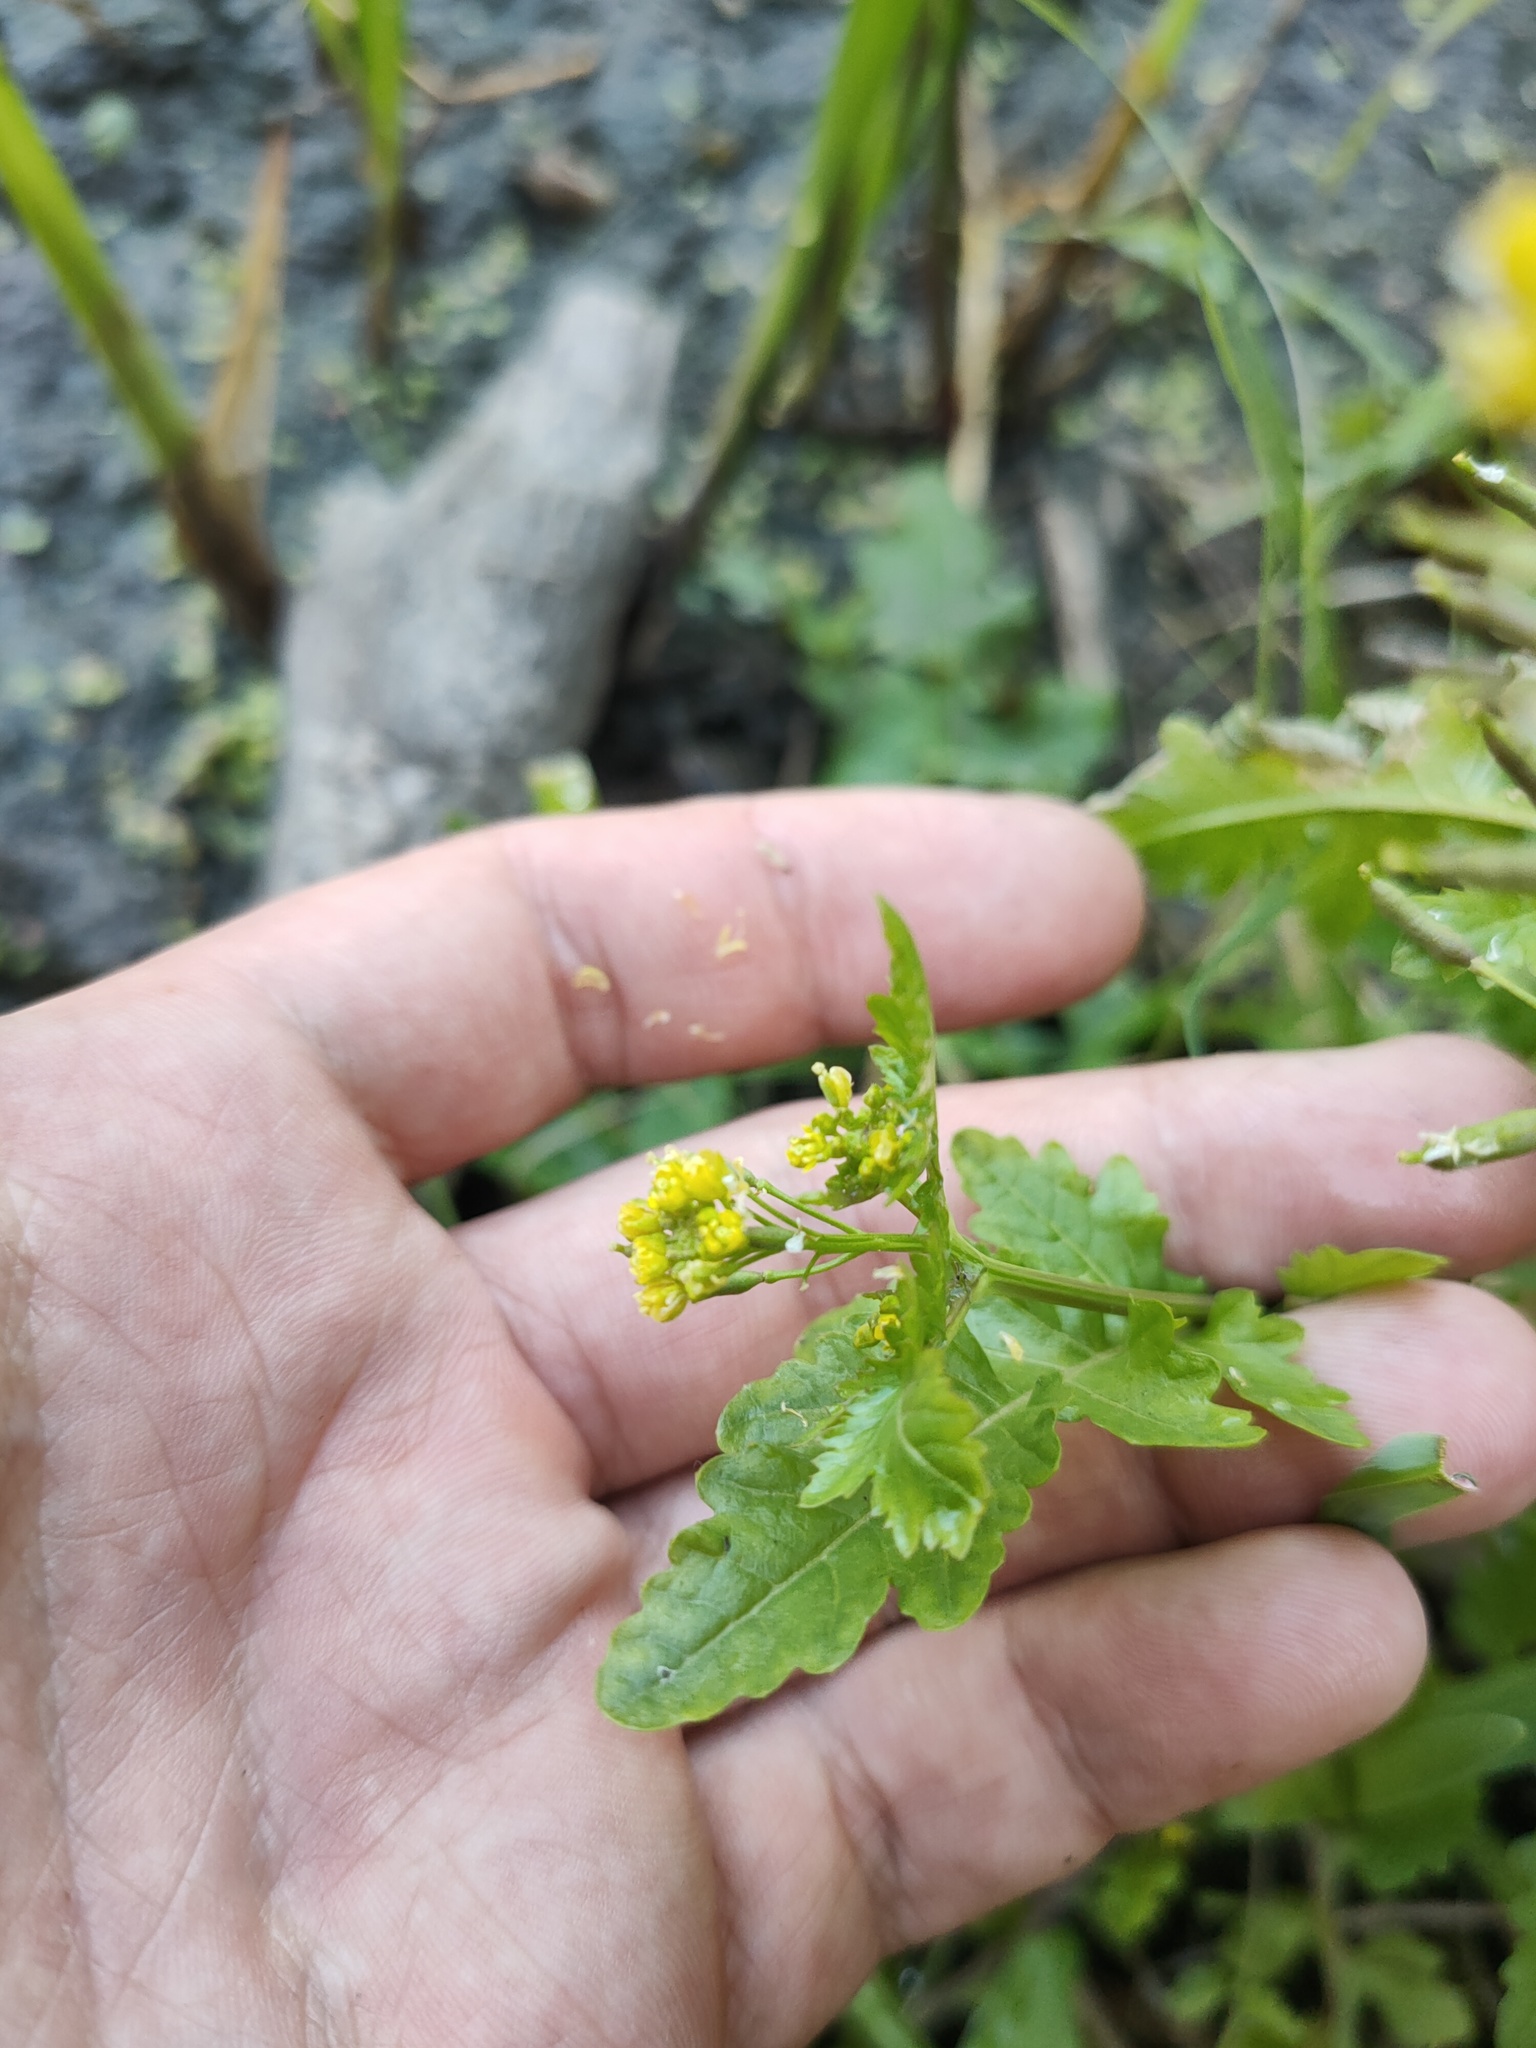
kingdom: Plantae
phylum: Tracheophyta
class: Magnoliopsida
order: Brassicales
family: Brassicaceae
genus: Rorippa
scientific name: Rorippa palustris
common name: Marsh yellow-cress
